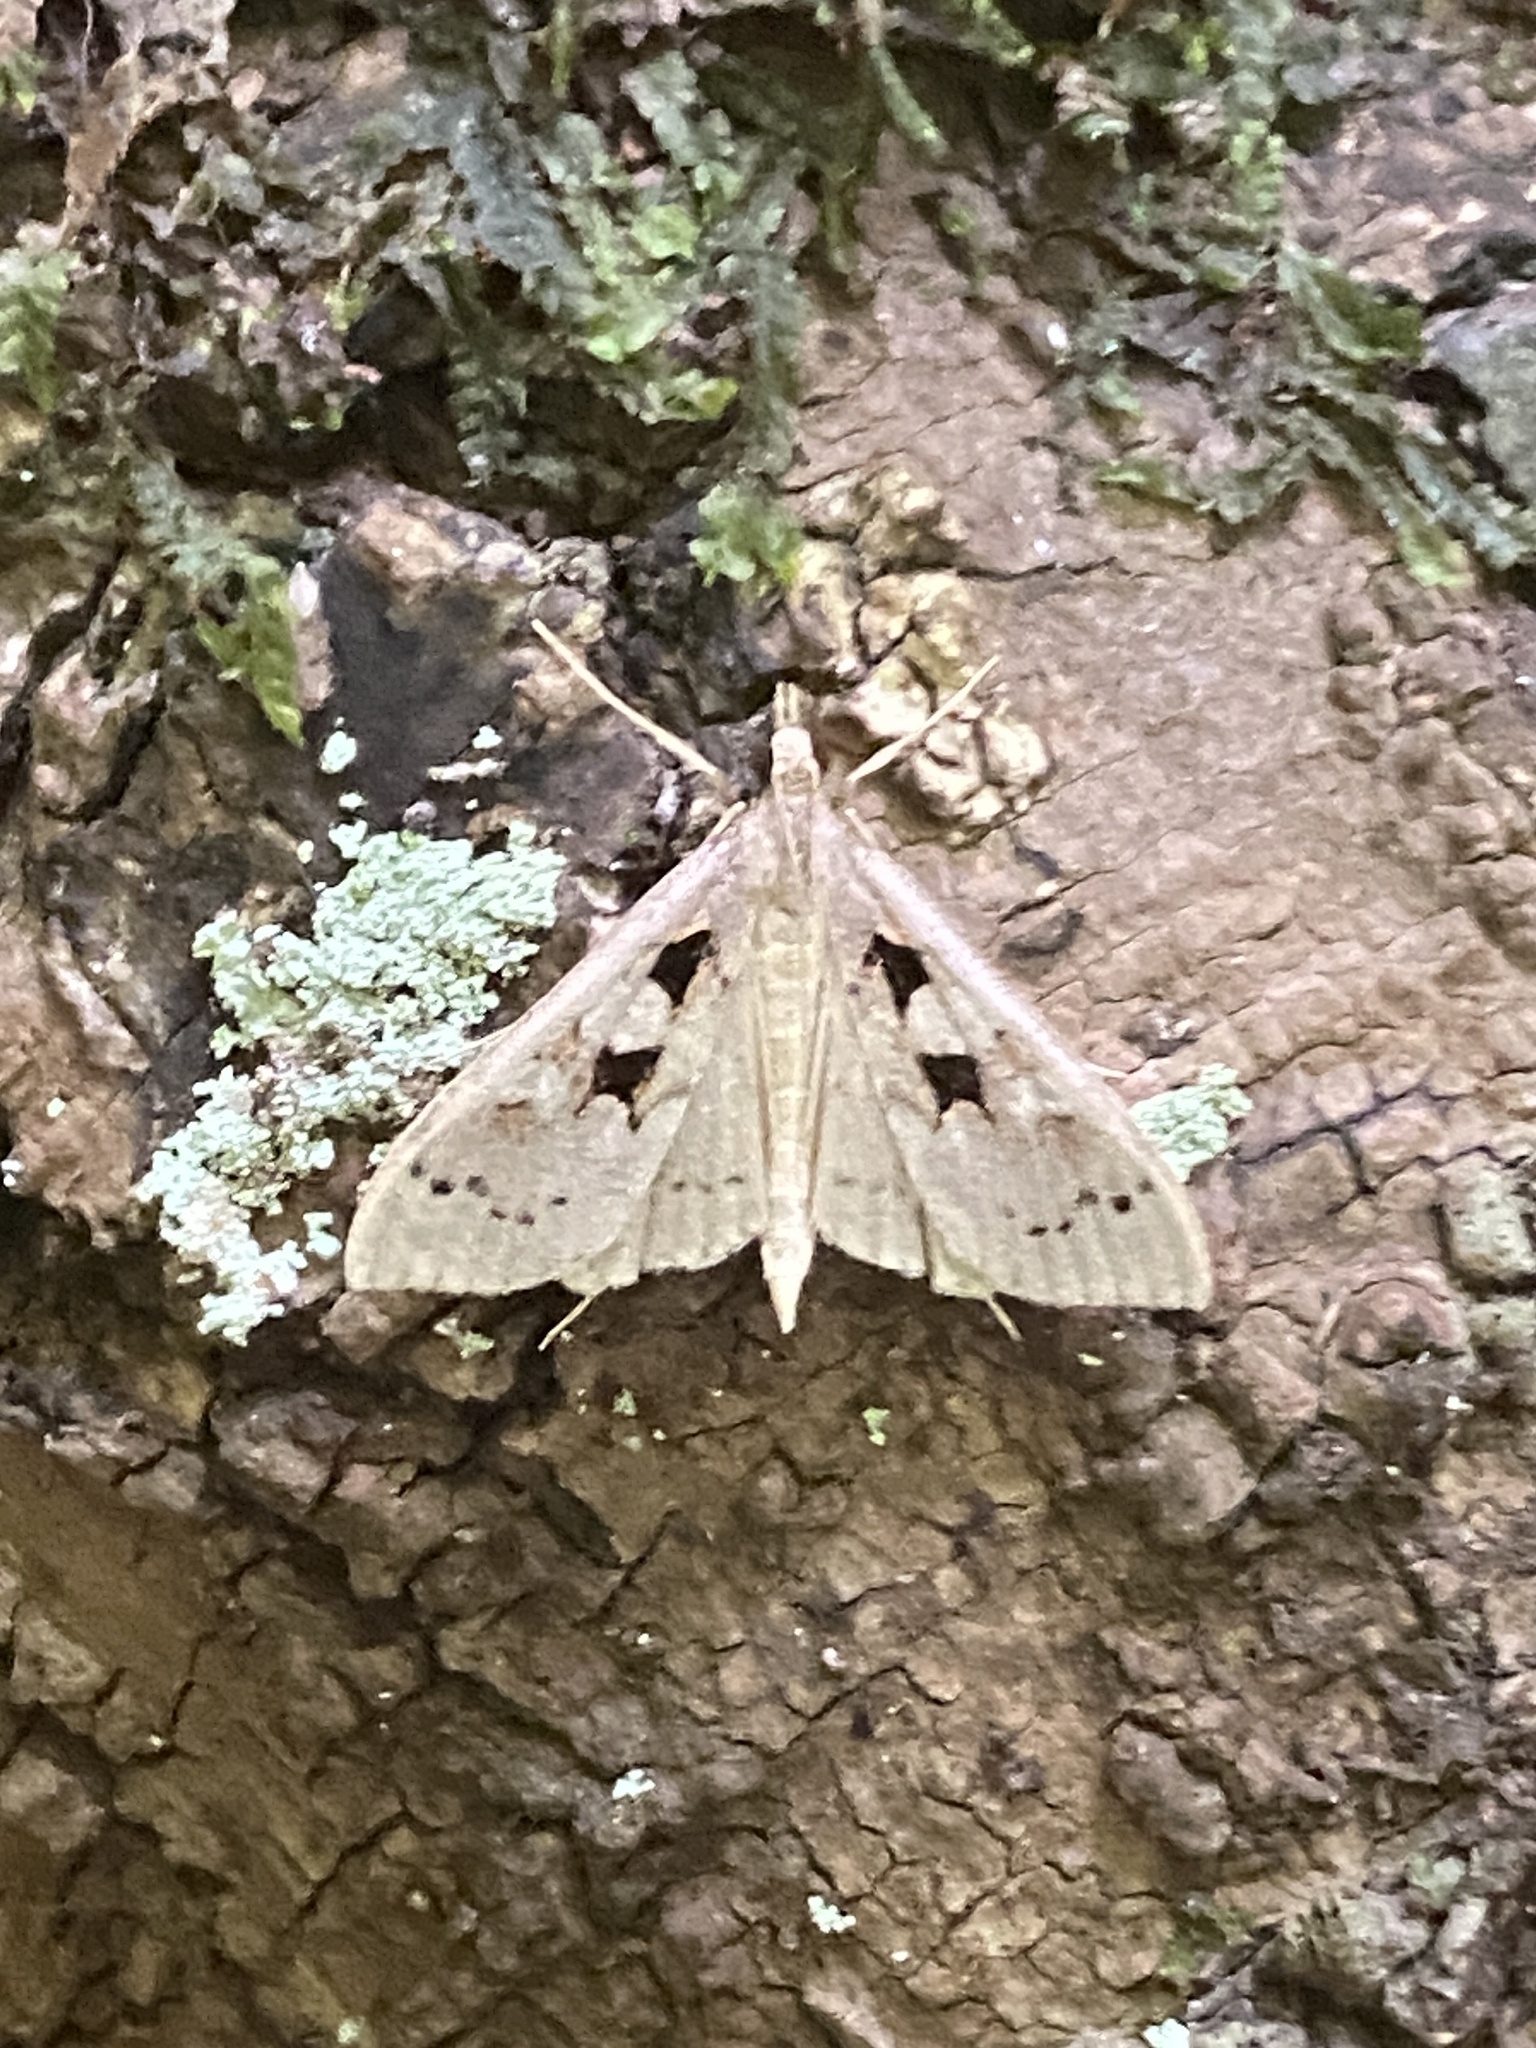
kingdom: Animalia
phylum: Arthropoda
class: Insecta
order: Lepidoptera
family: Crambidae
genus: Mecyna
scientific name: Mecyna asinalis
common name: Coastal pearl
